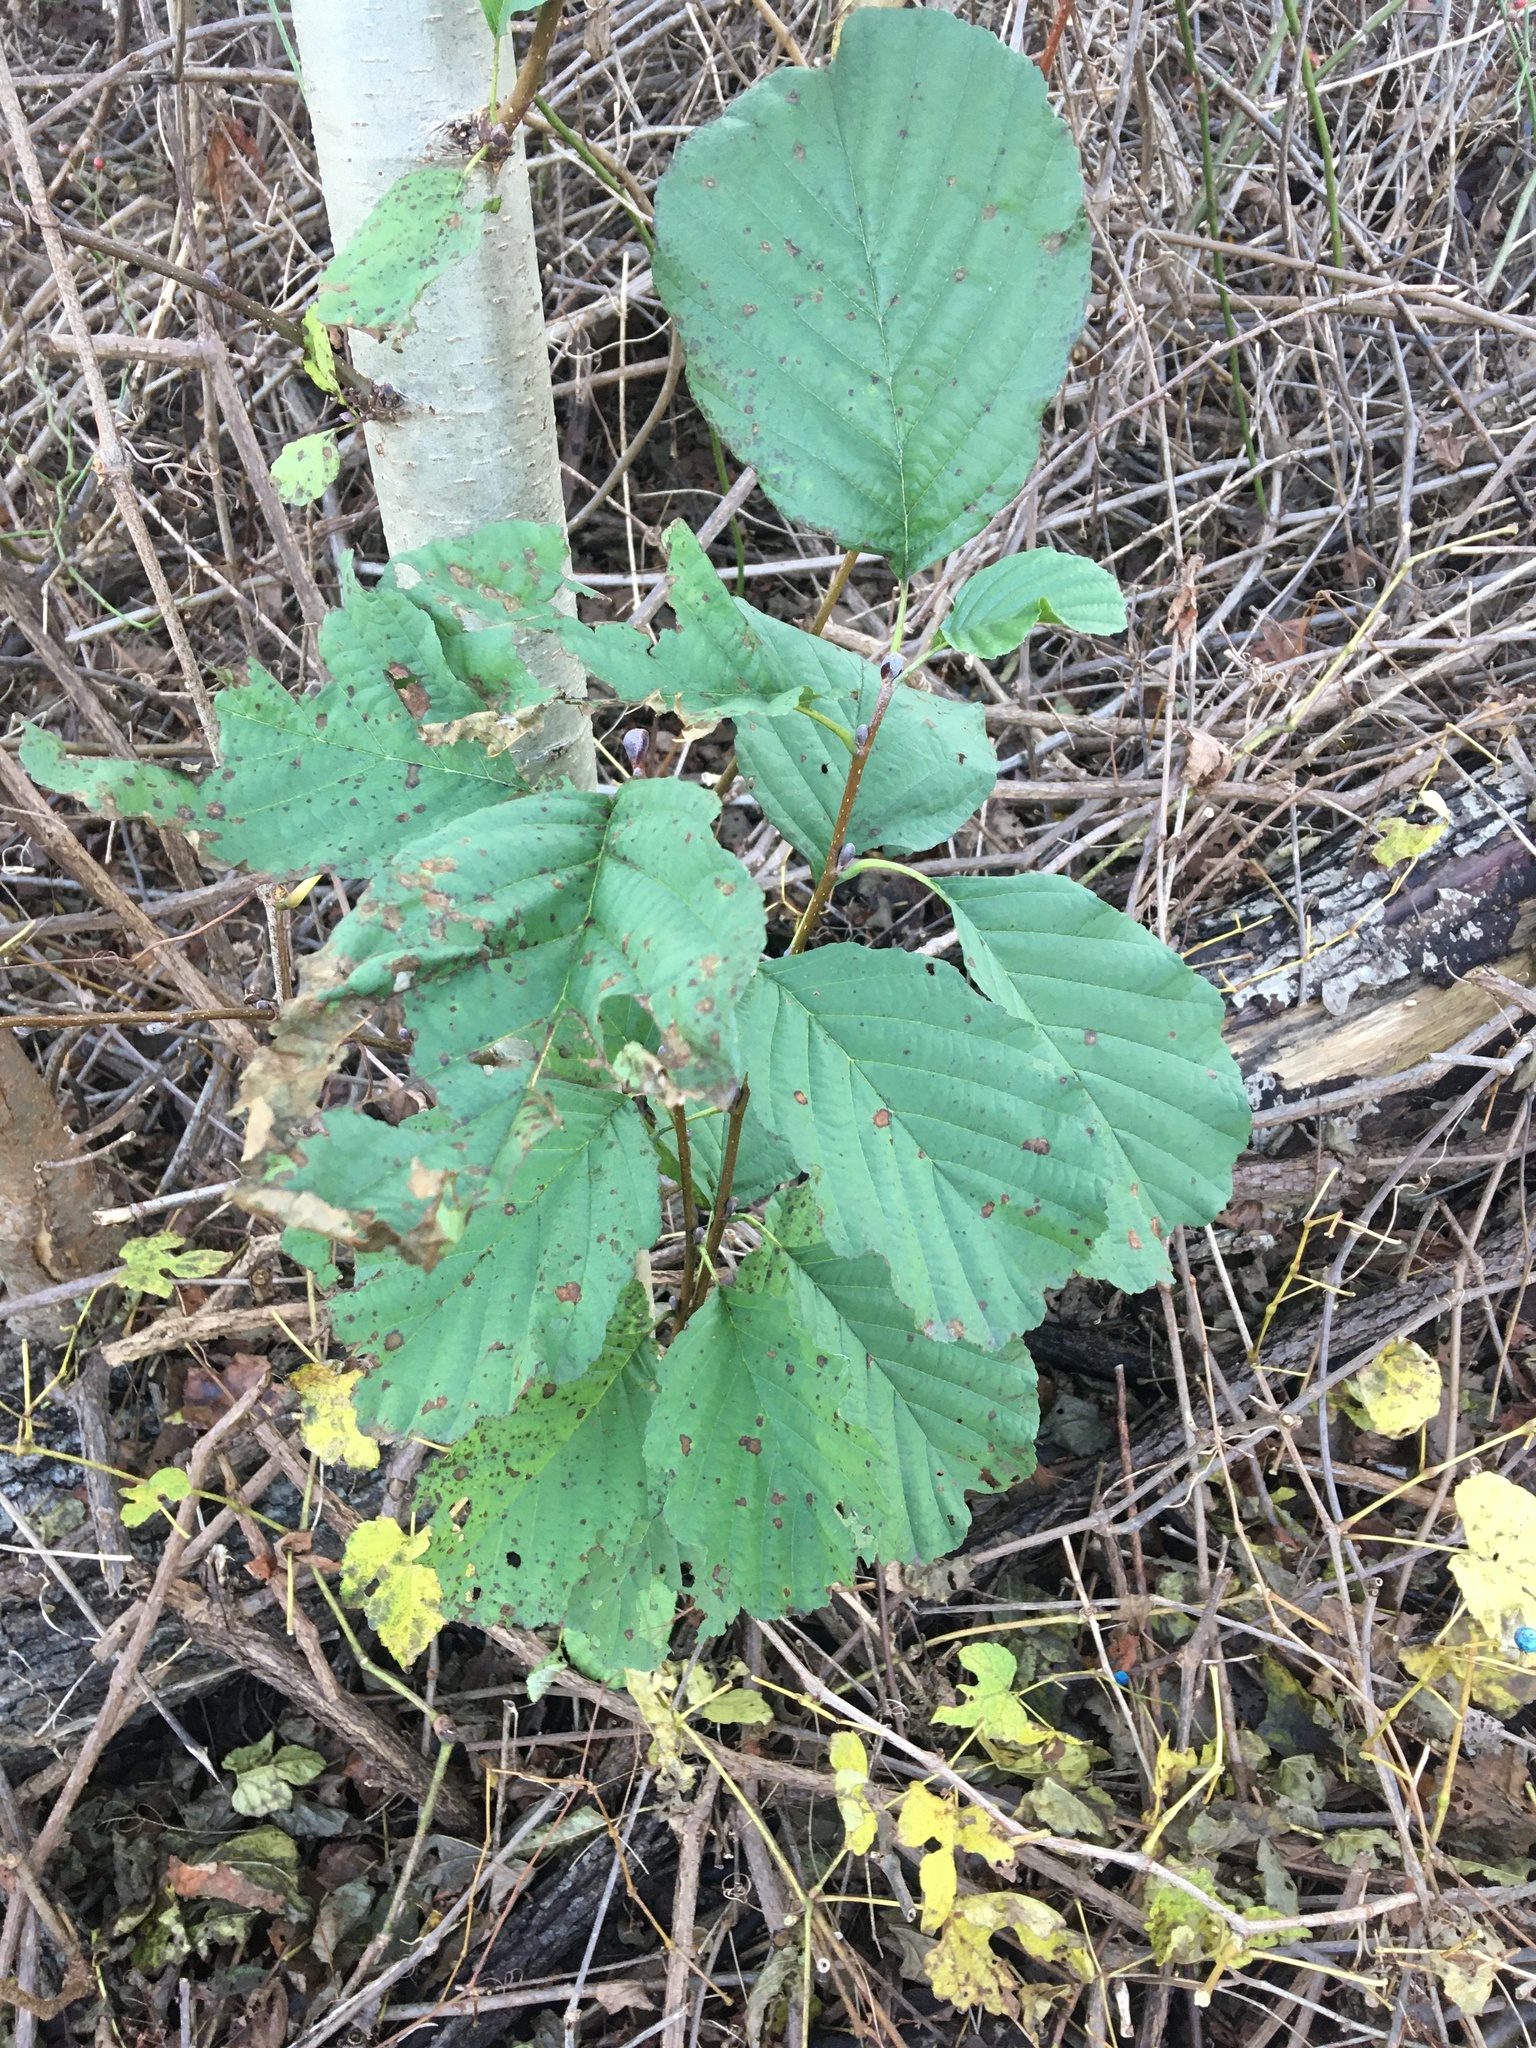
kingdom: Plantae
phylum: Tracheophyta
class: Magnoliopsida
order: Fagales
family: Betulaceae
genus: Alnus
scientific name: Alnus glutinosa
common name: Black alder
